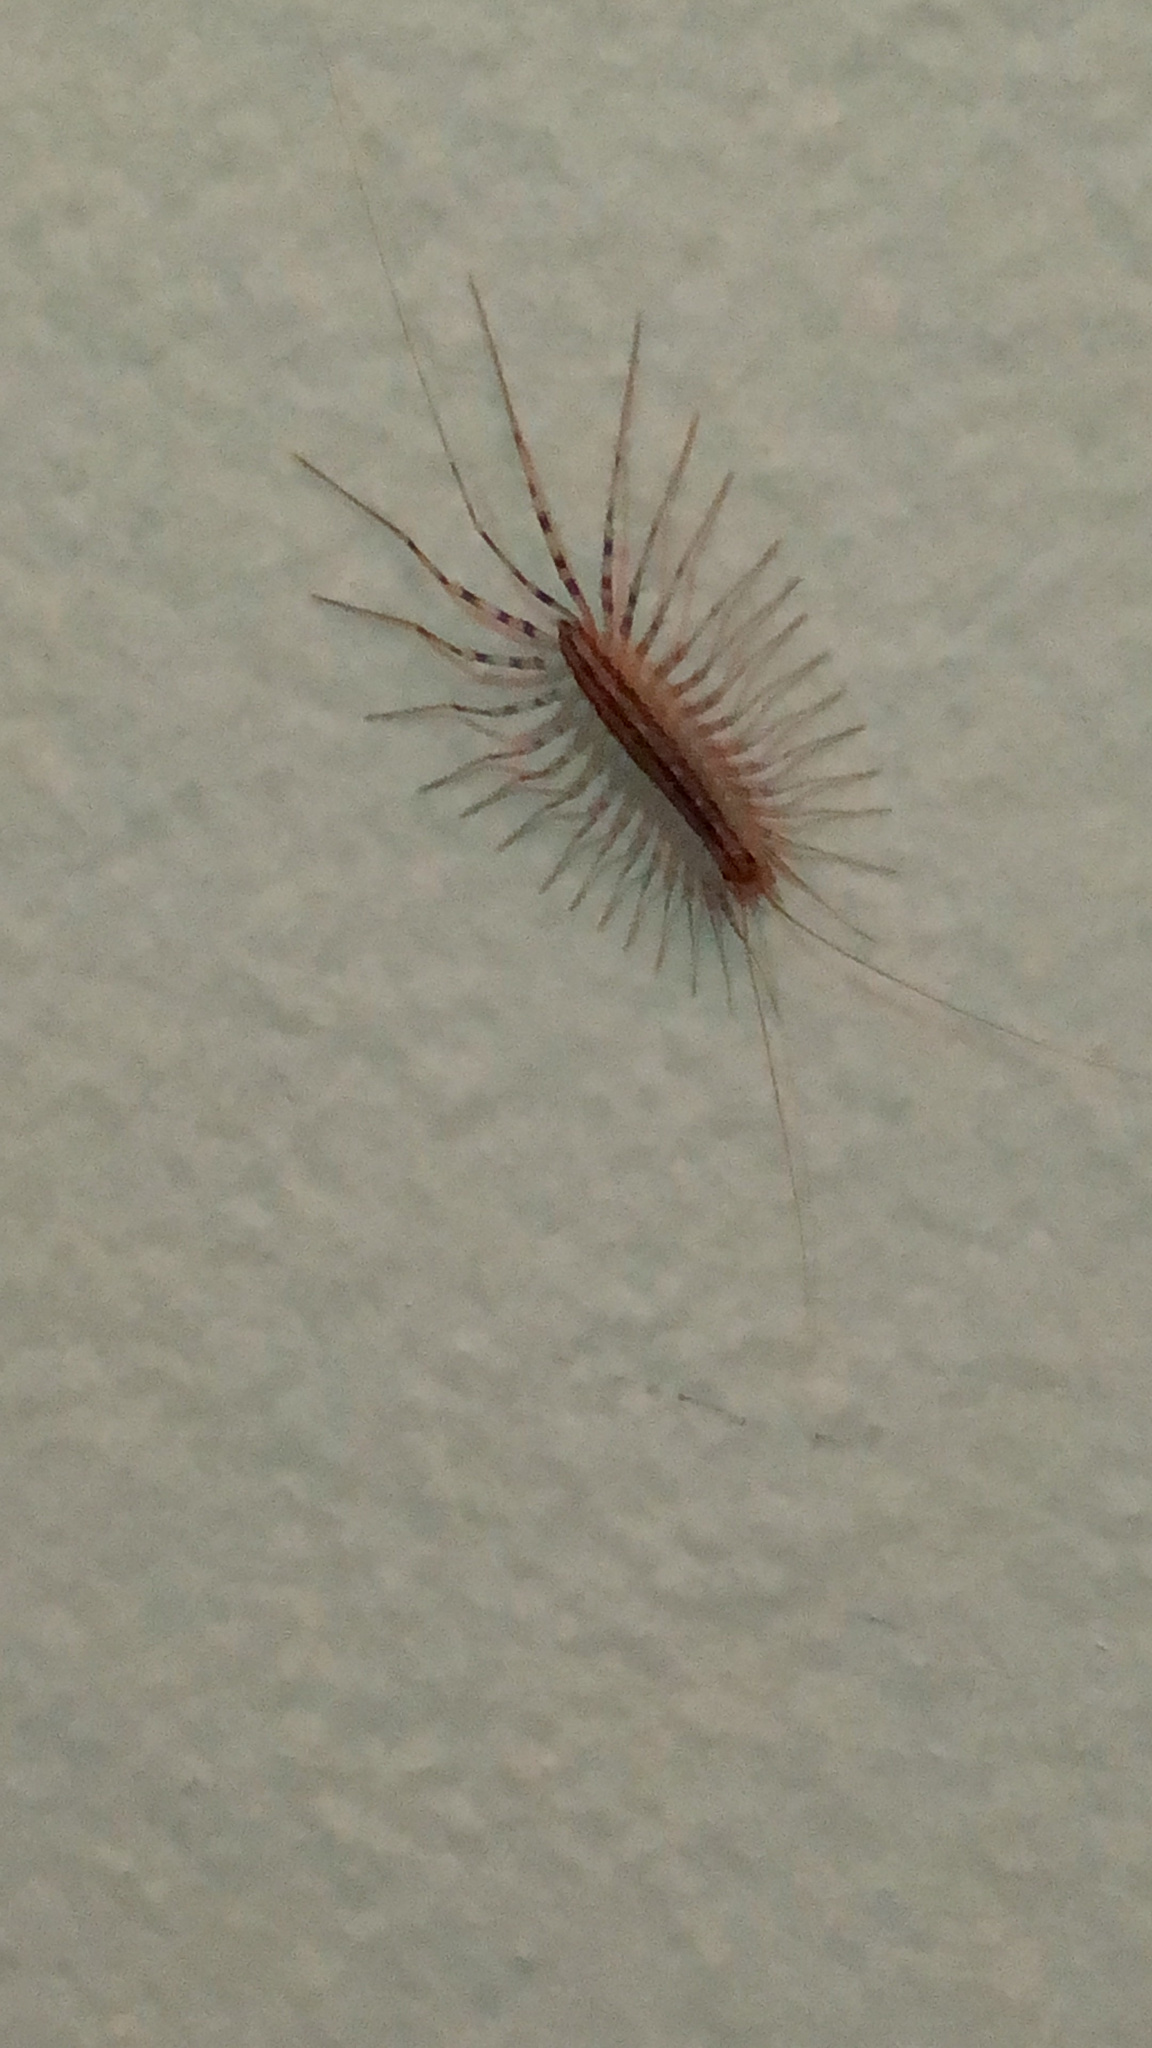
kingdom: Animalia
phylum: Arthropoda
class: Chilopoda
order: Scutigeromorpha
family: Scutigeridae
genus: Scutigera
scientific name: Scutigera coleoptrata
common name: House centipede
